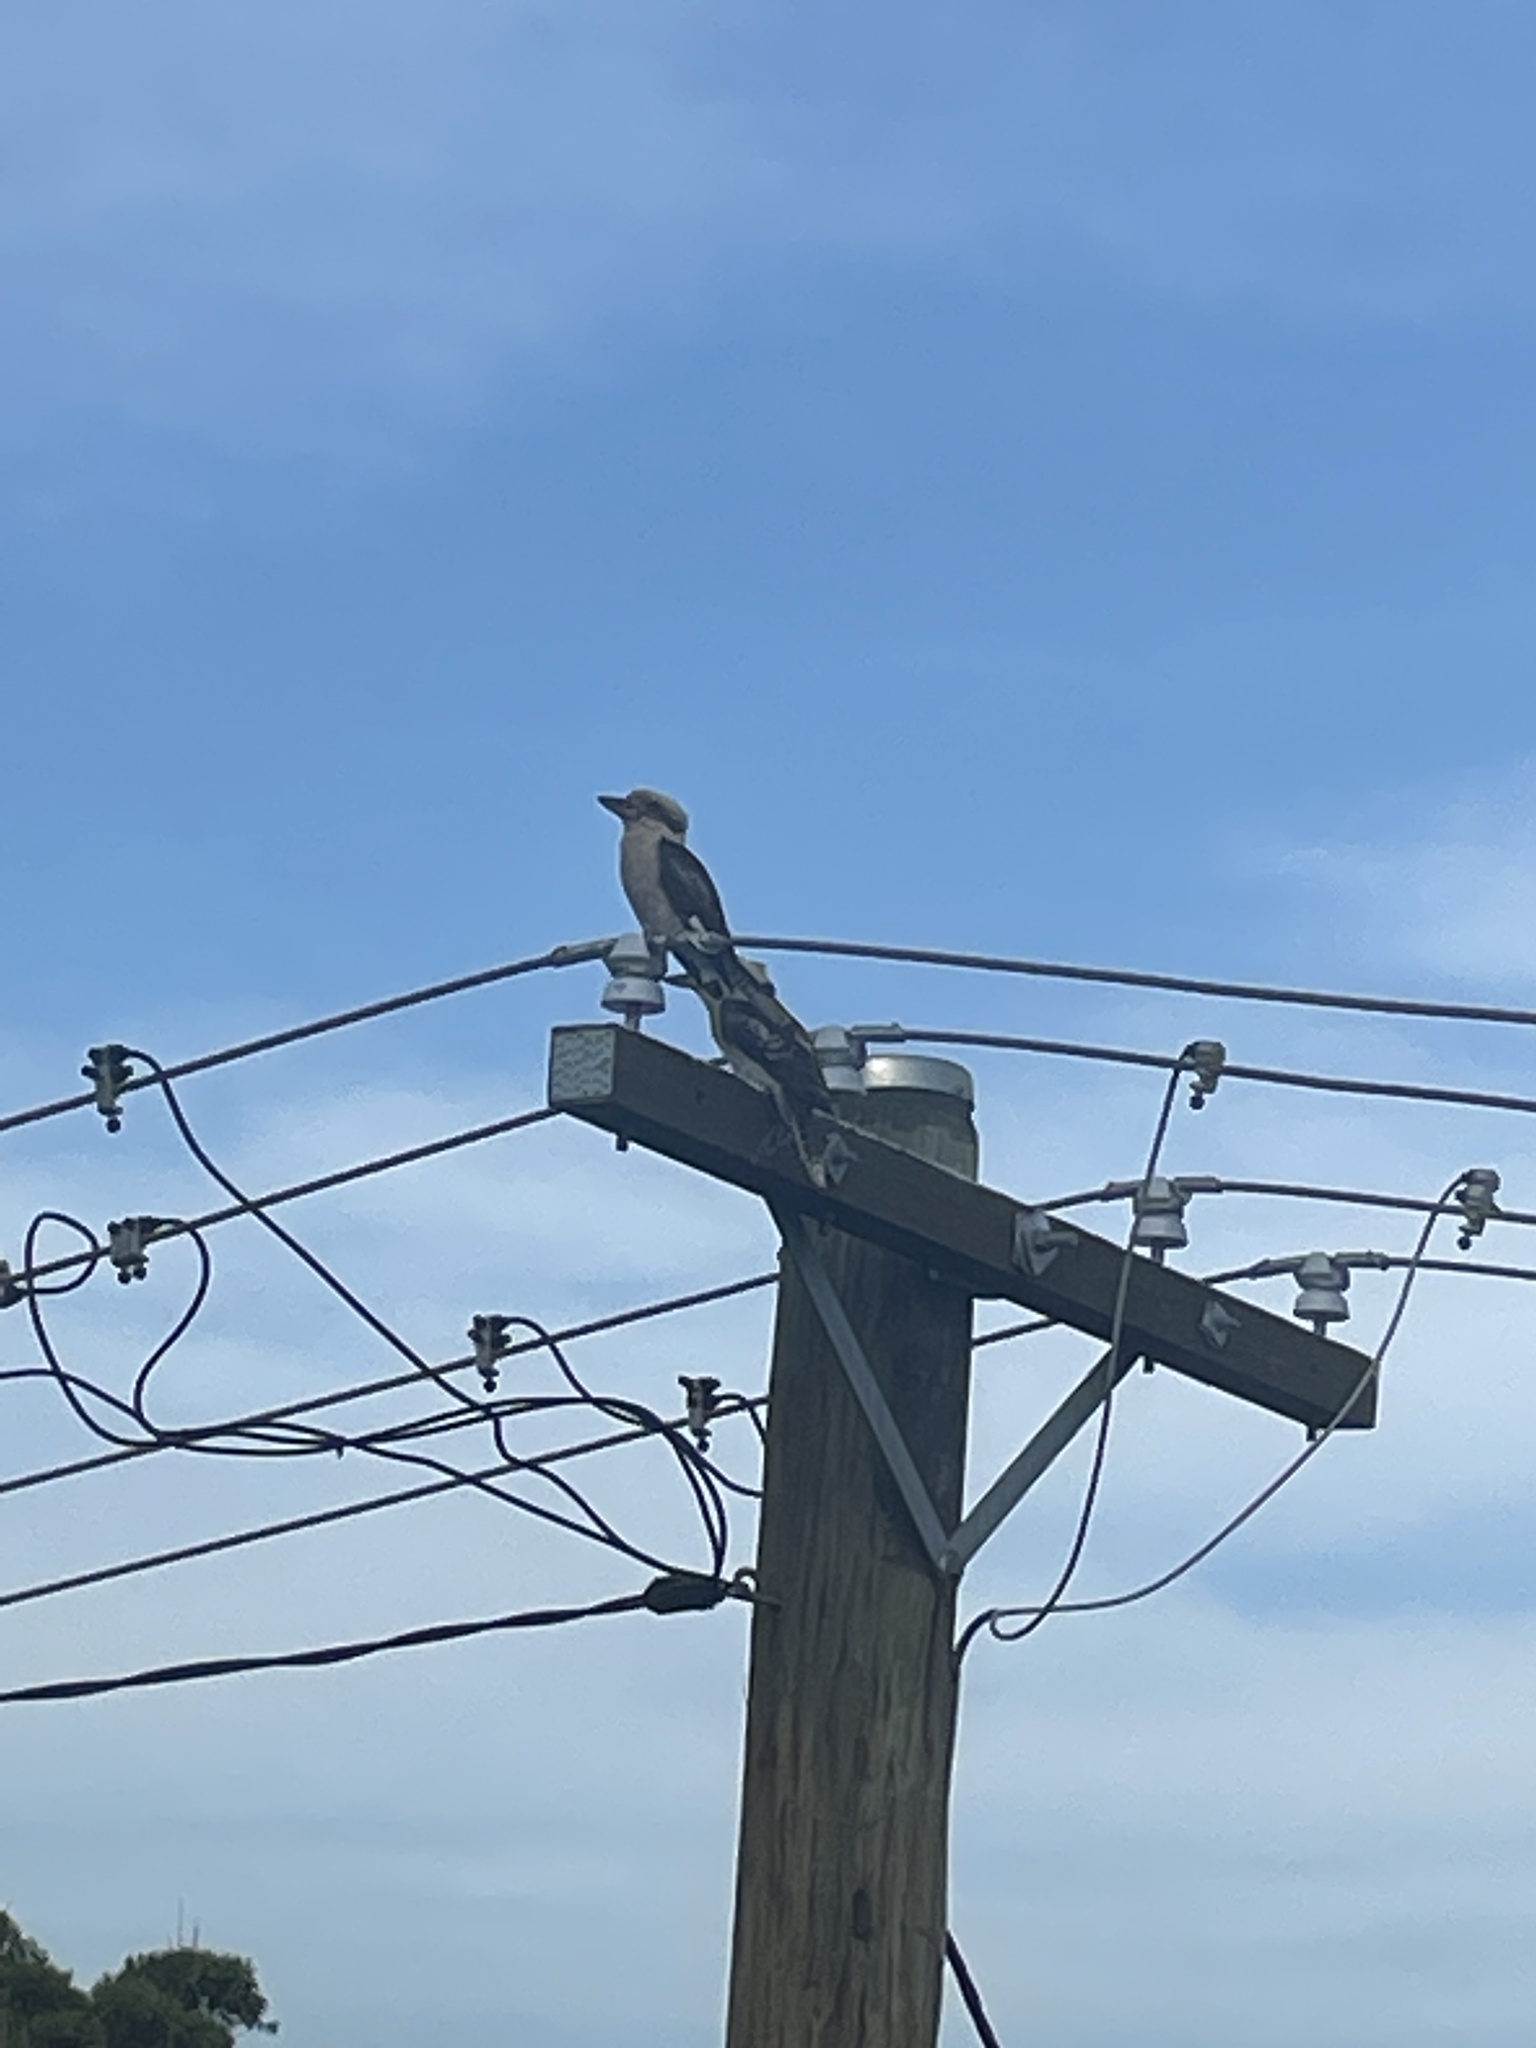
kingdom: Animalia
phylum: Chordata
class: Aves
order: Coraciiformes
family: Alcedinidae
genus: Dacelo
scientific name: Dacelo novaeguineae
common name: Laughing kookaburra
